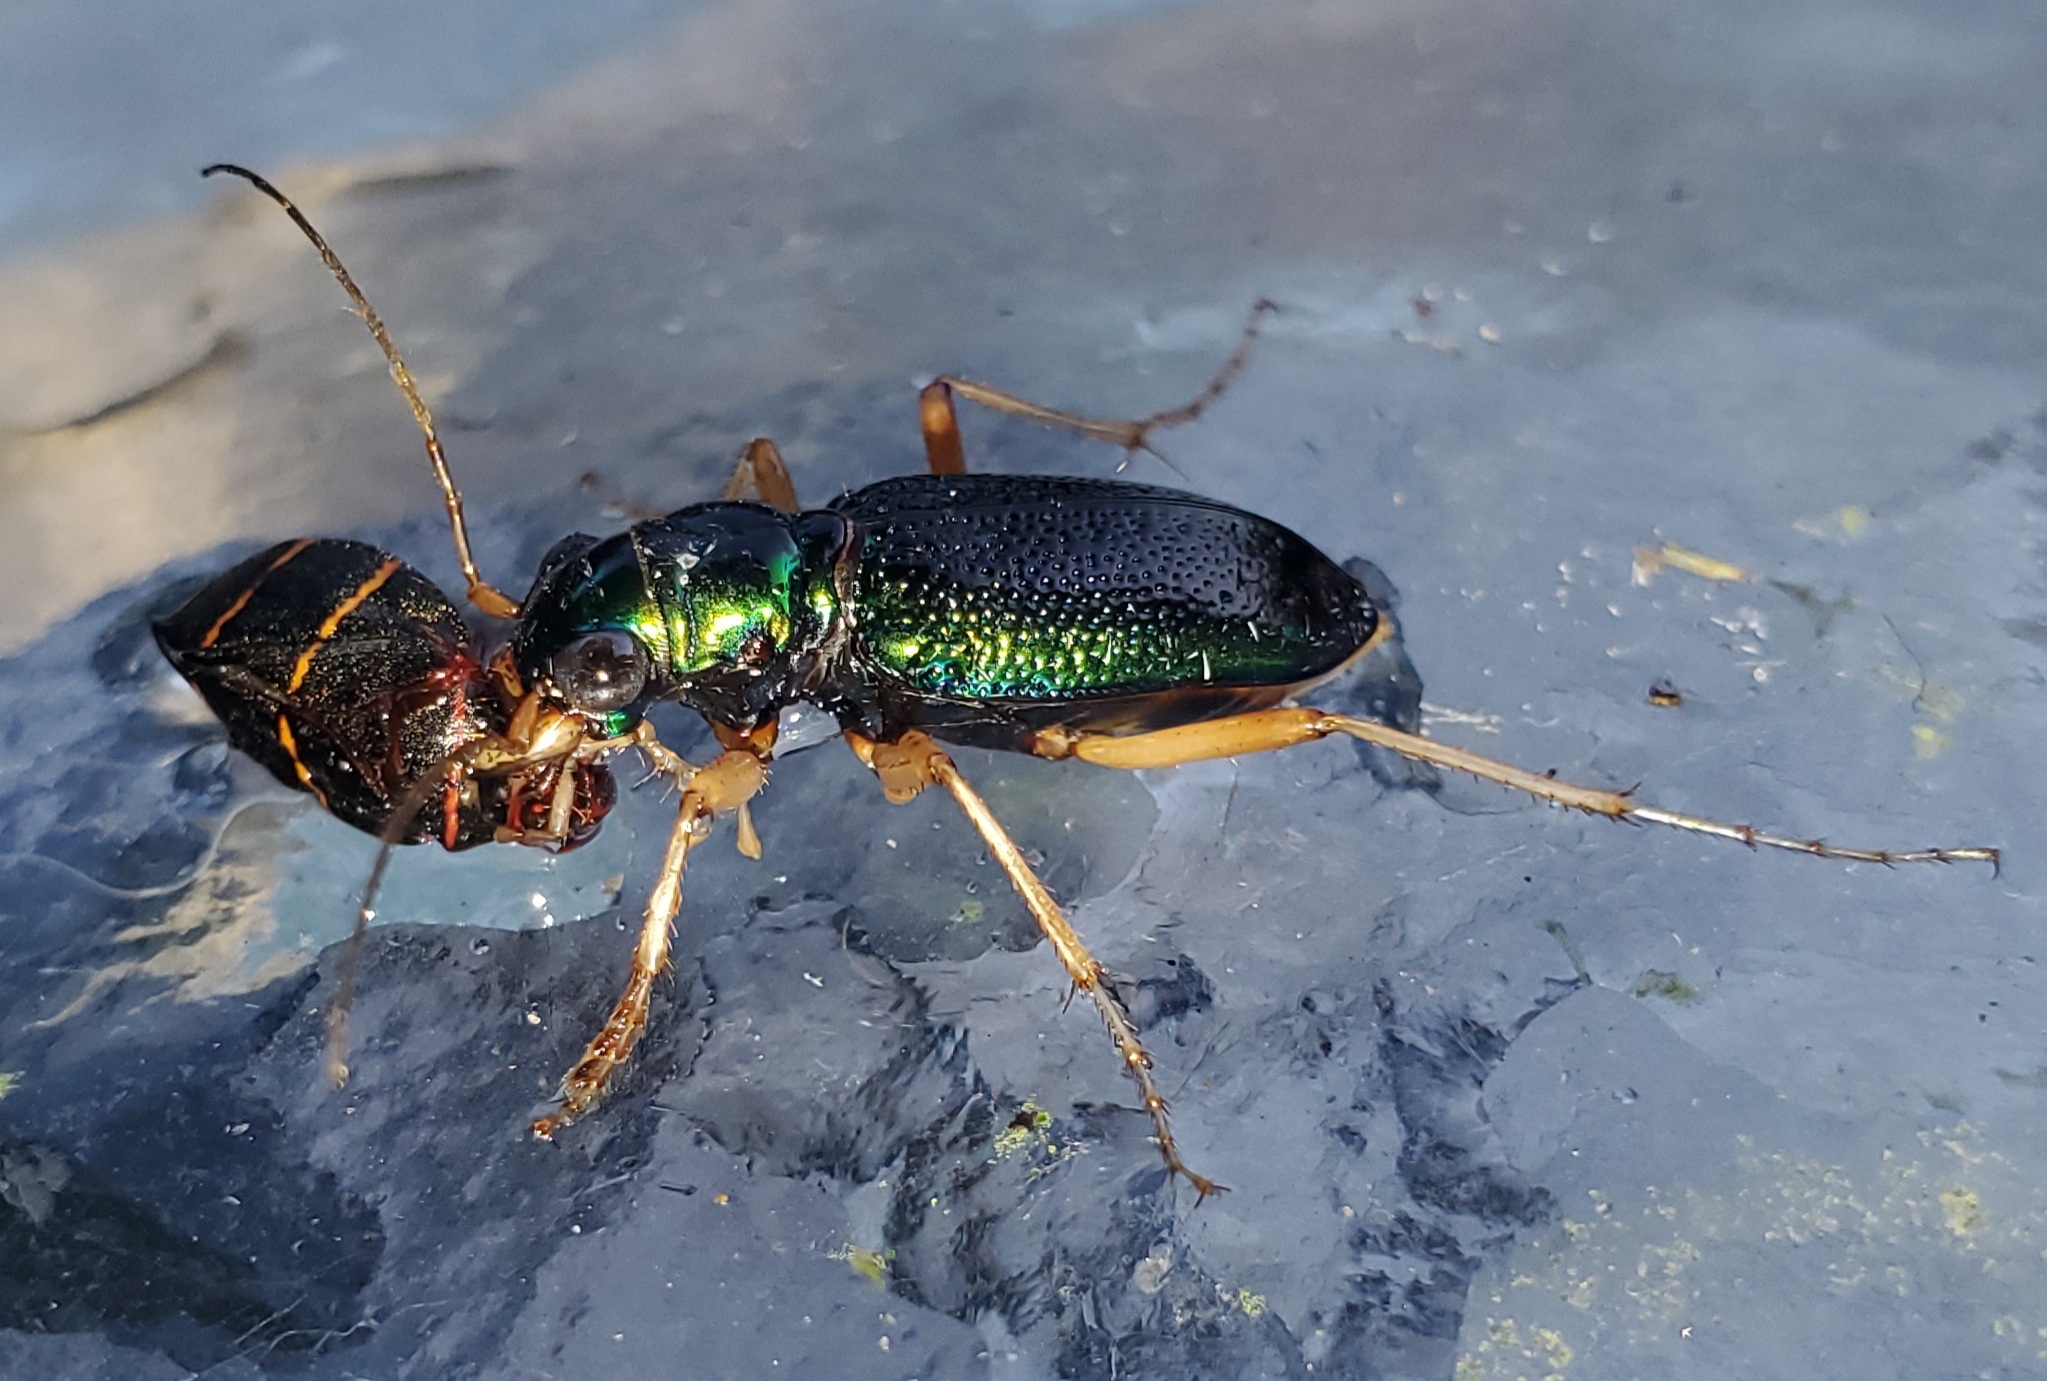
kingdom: Animalia
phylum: Arthropoda
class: Insecta
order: Coleoptera
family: Carabidae
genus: Tetracha
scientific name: Tetracha virginica
